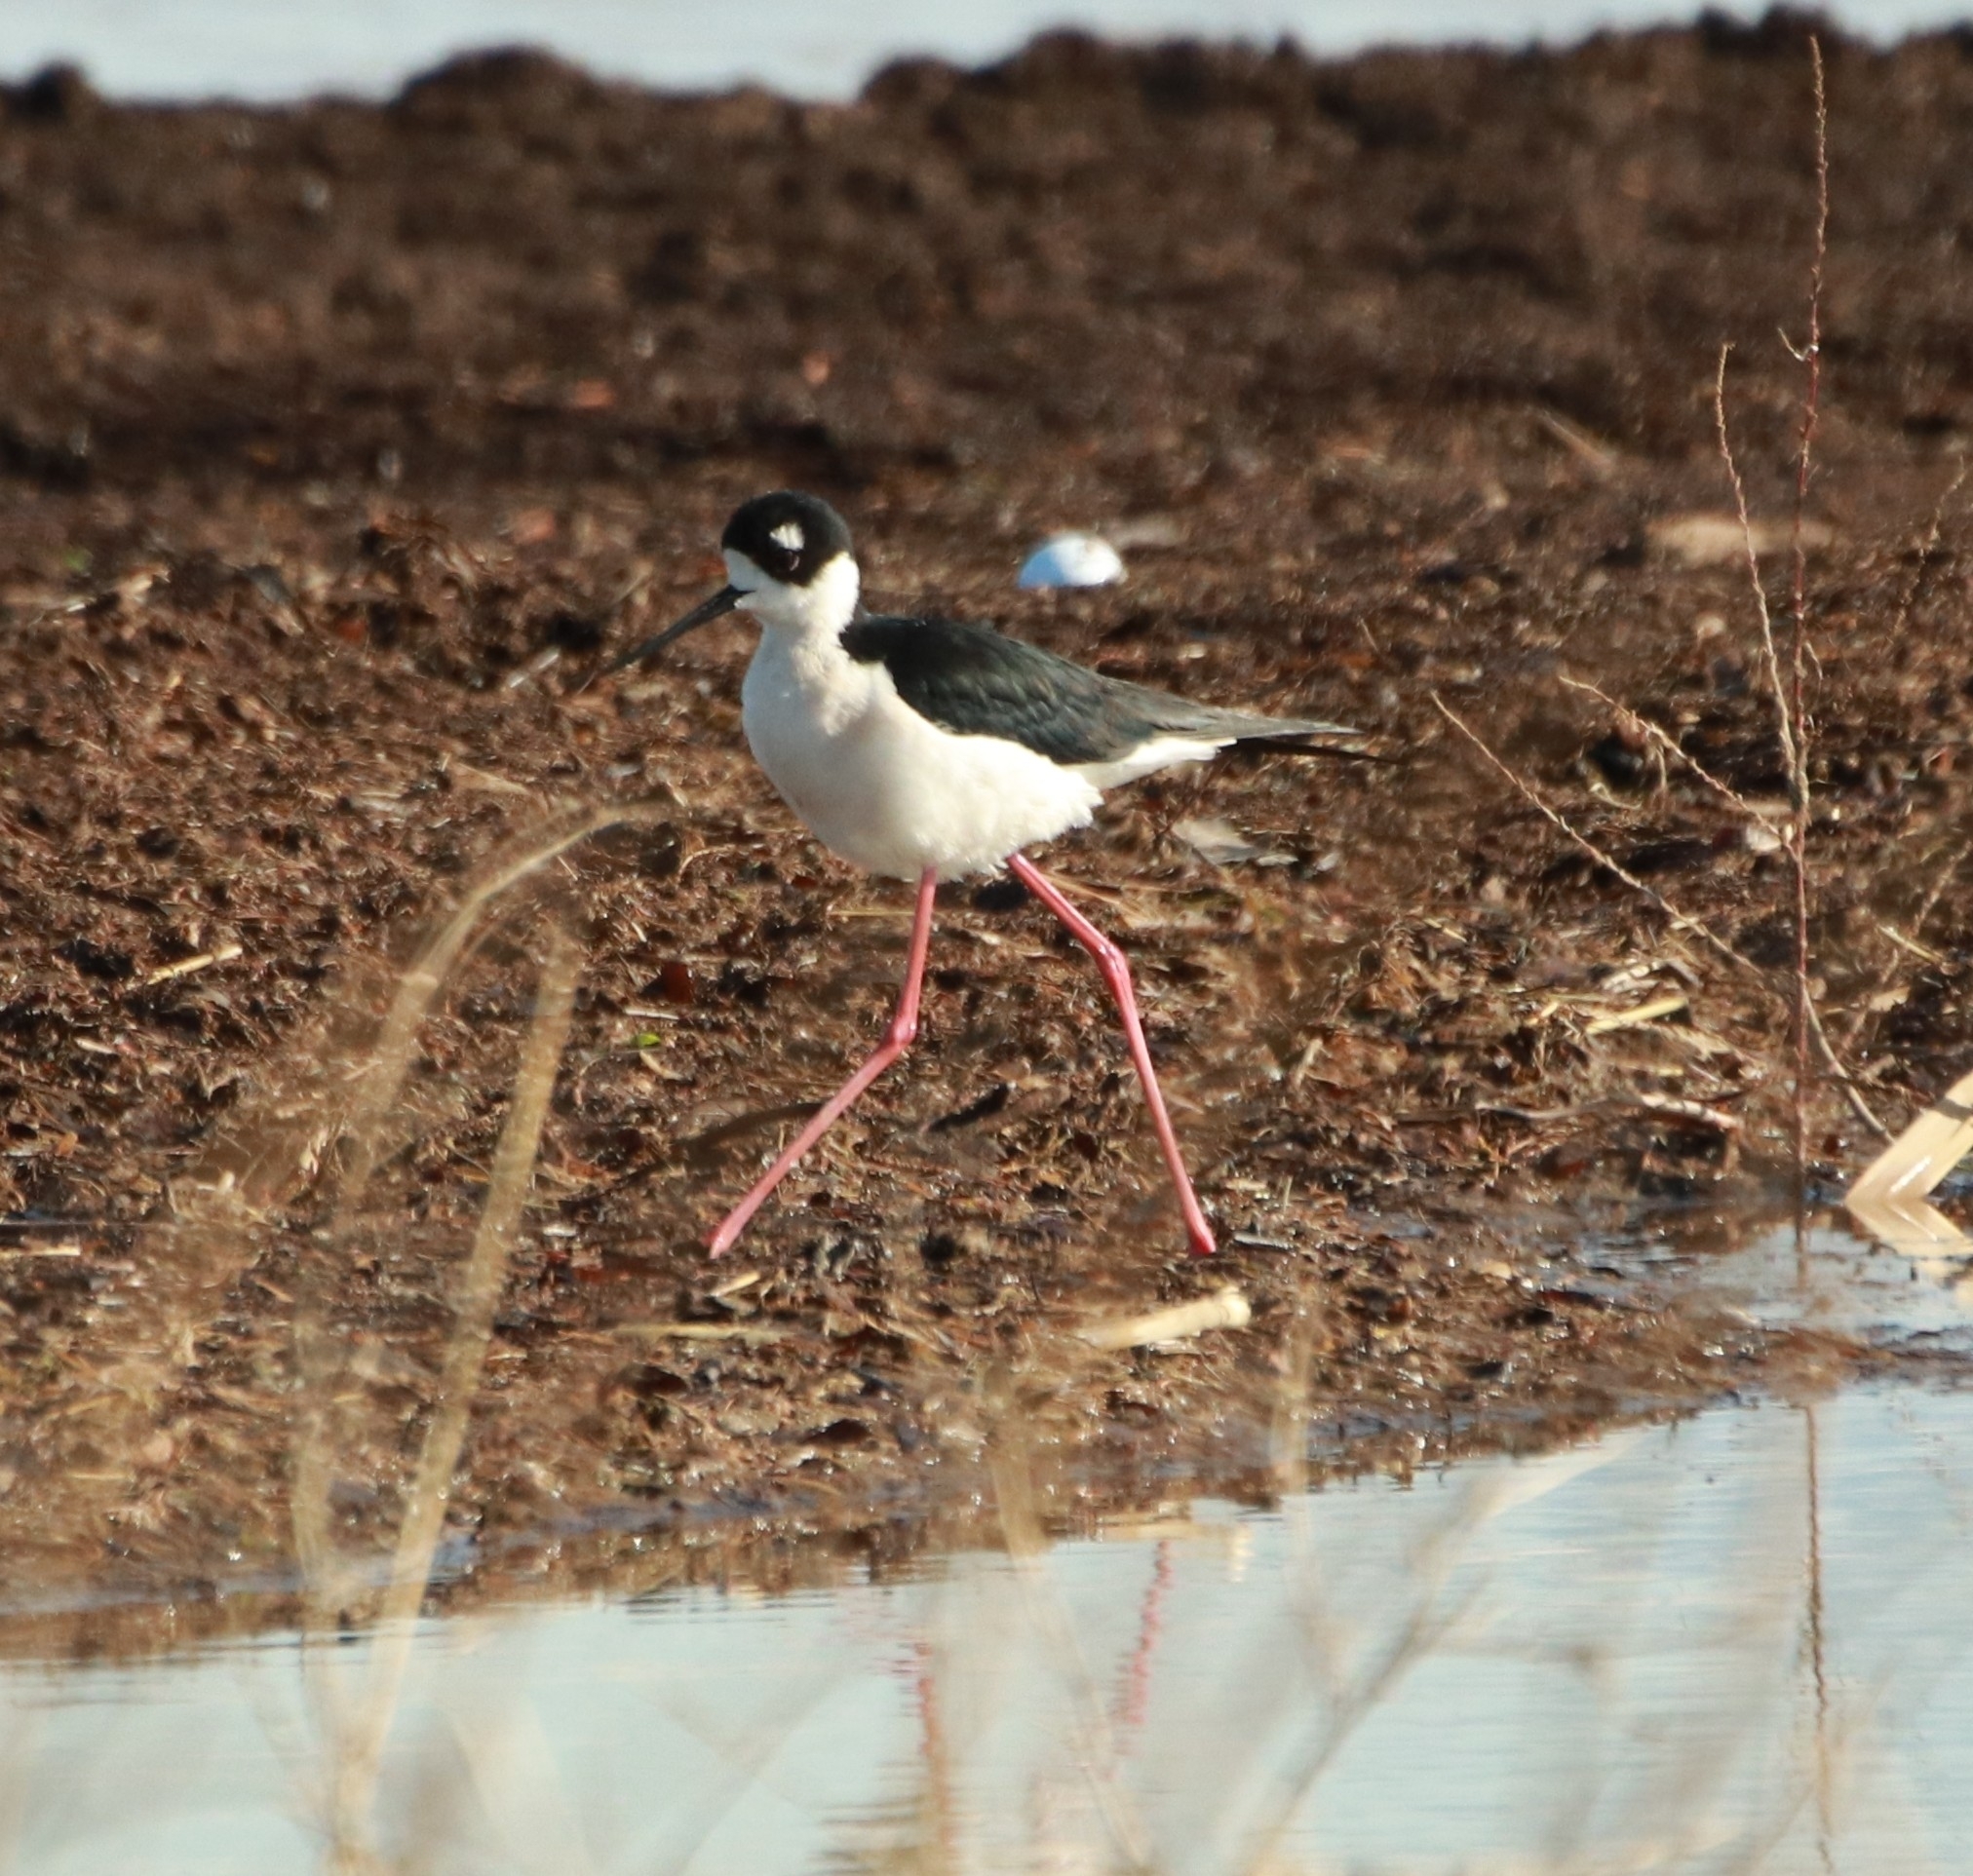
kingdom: Animalia
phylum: Chordata
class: Aves
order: Charadriiformes
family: Recurvirostridae
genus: Himantopus
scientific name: Himantopus mexicanus
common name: Black-necked stilt
